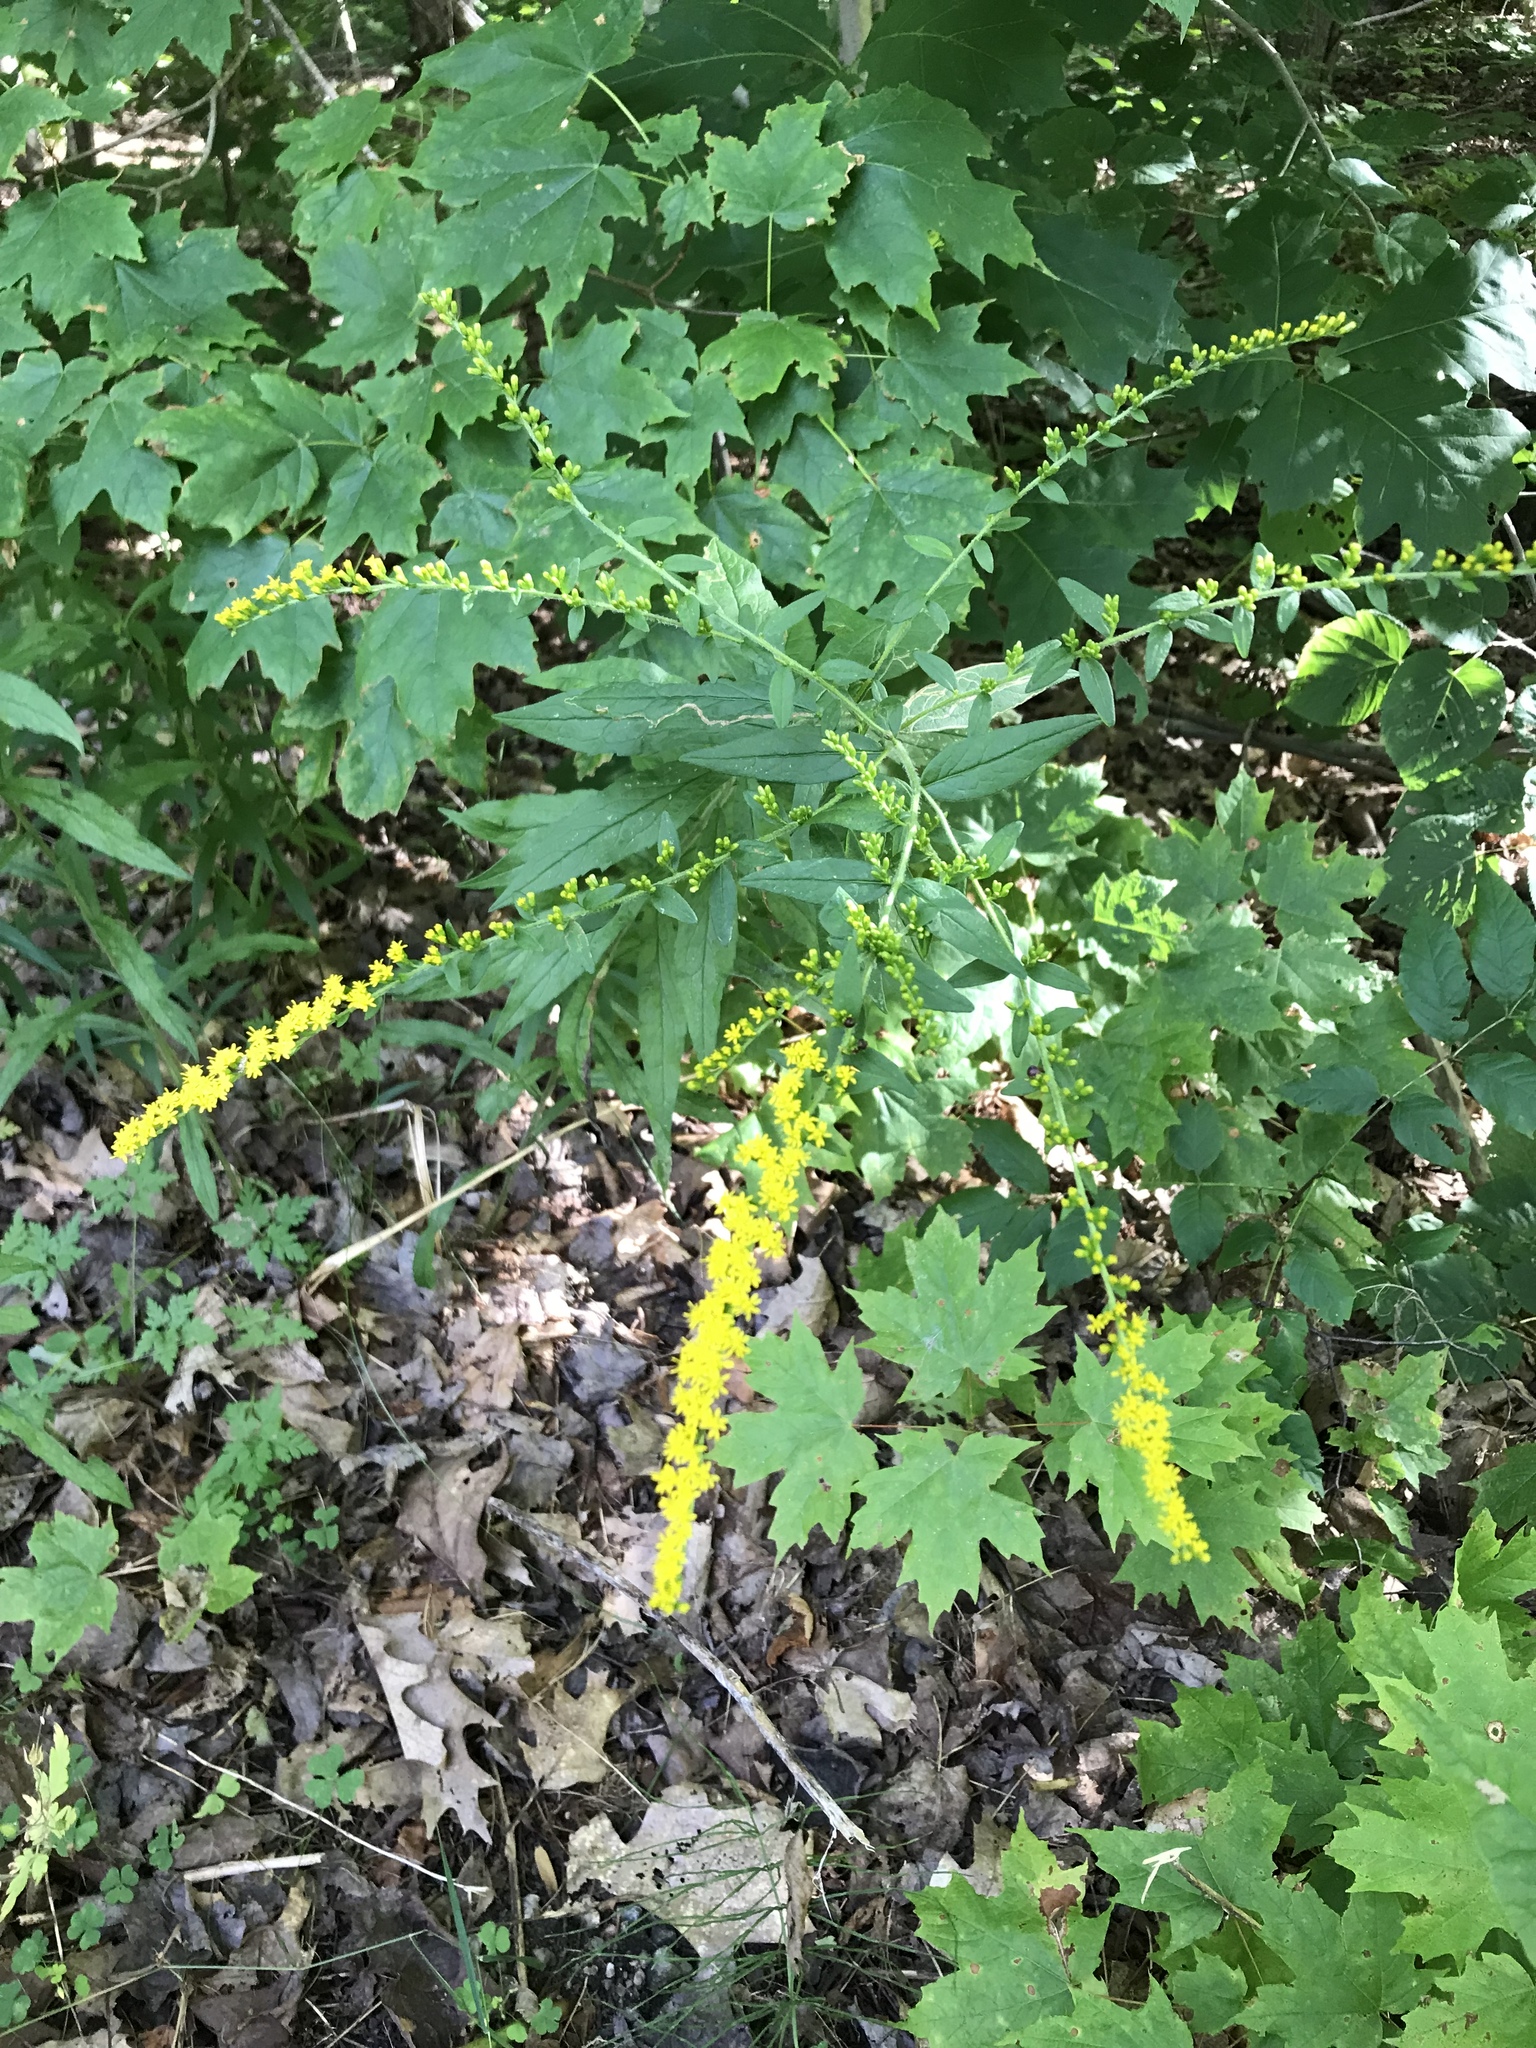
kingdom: Plantae
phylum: Tracheophyta
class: Magnoliopsida
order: Asterales
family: Asteraceae
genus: Solidago
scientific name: Solidago rugosa
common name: Rough-stemmed goldenrod
